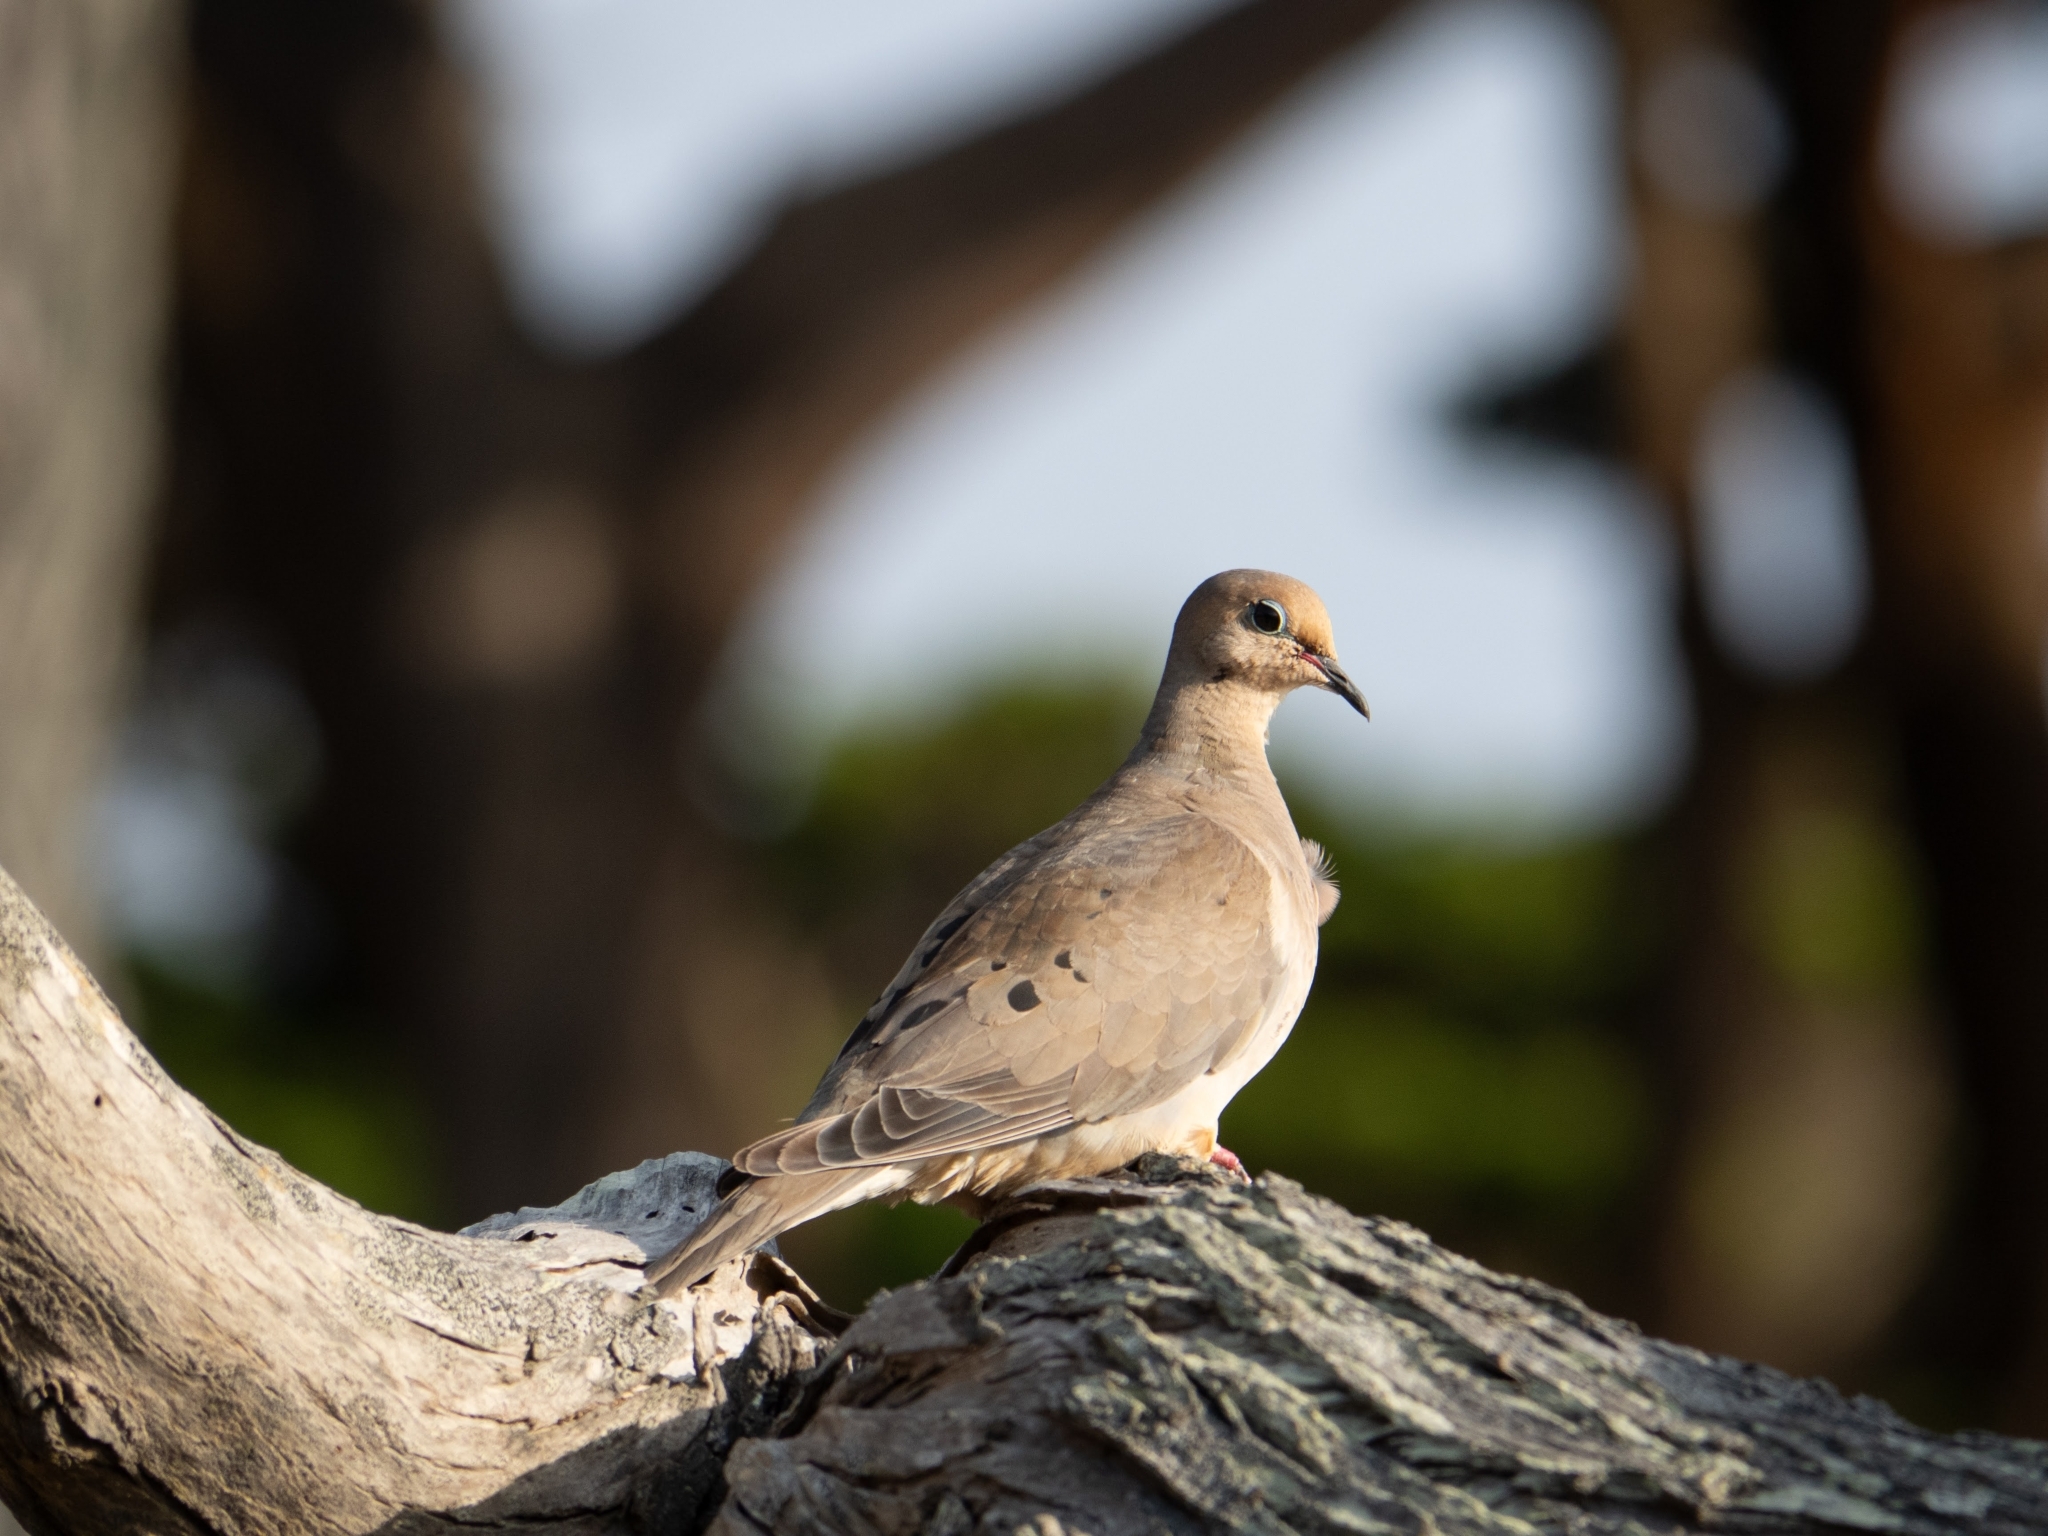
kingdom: Animalia
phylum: Chordata
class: Aves
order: Columbiformes
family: Columbidae
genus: Zenaida
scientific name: Zenaida macroura
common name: Mourning dove
